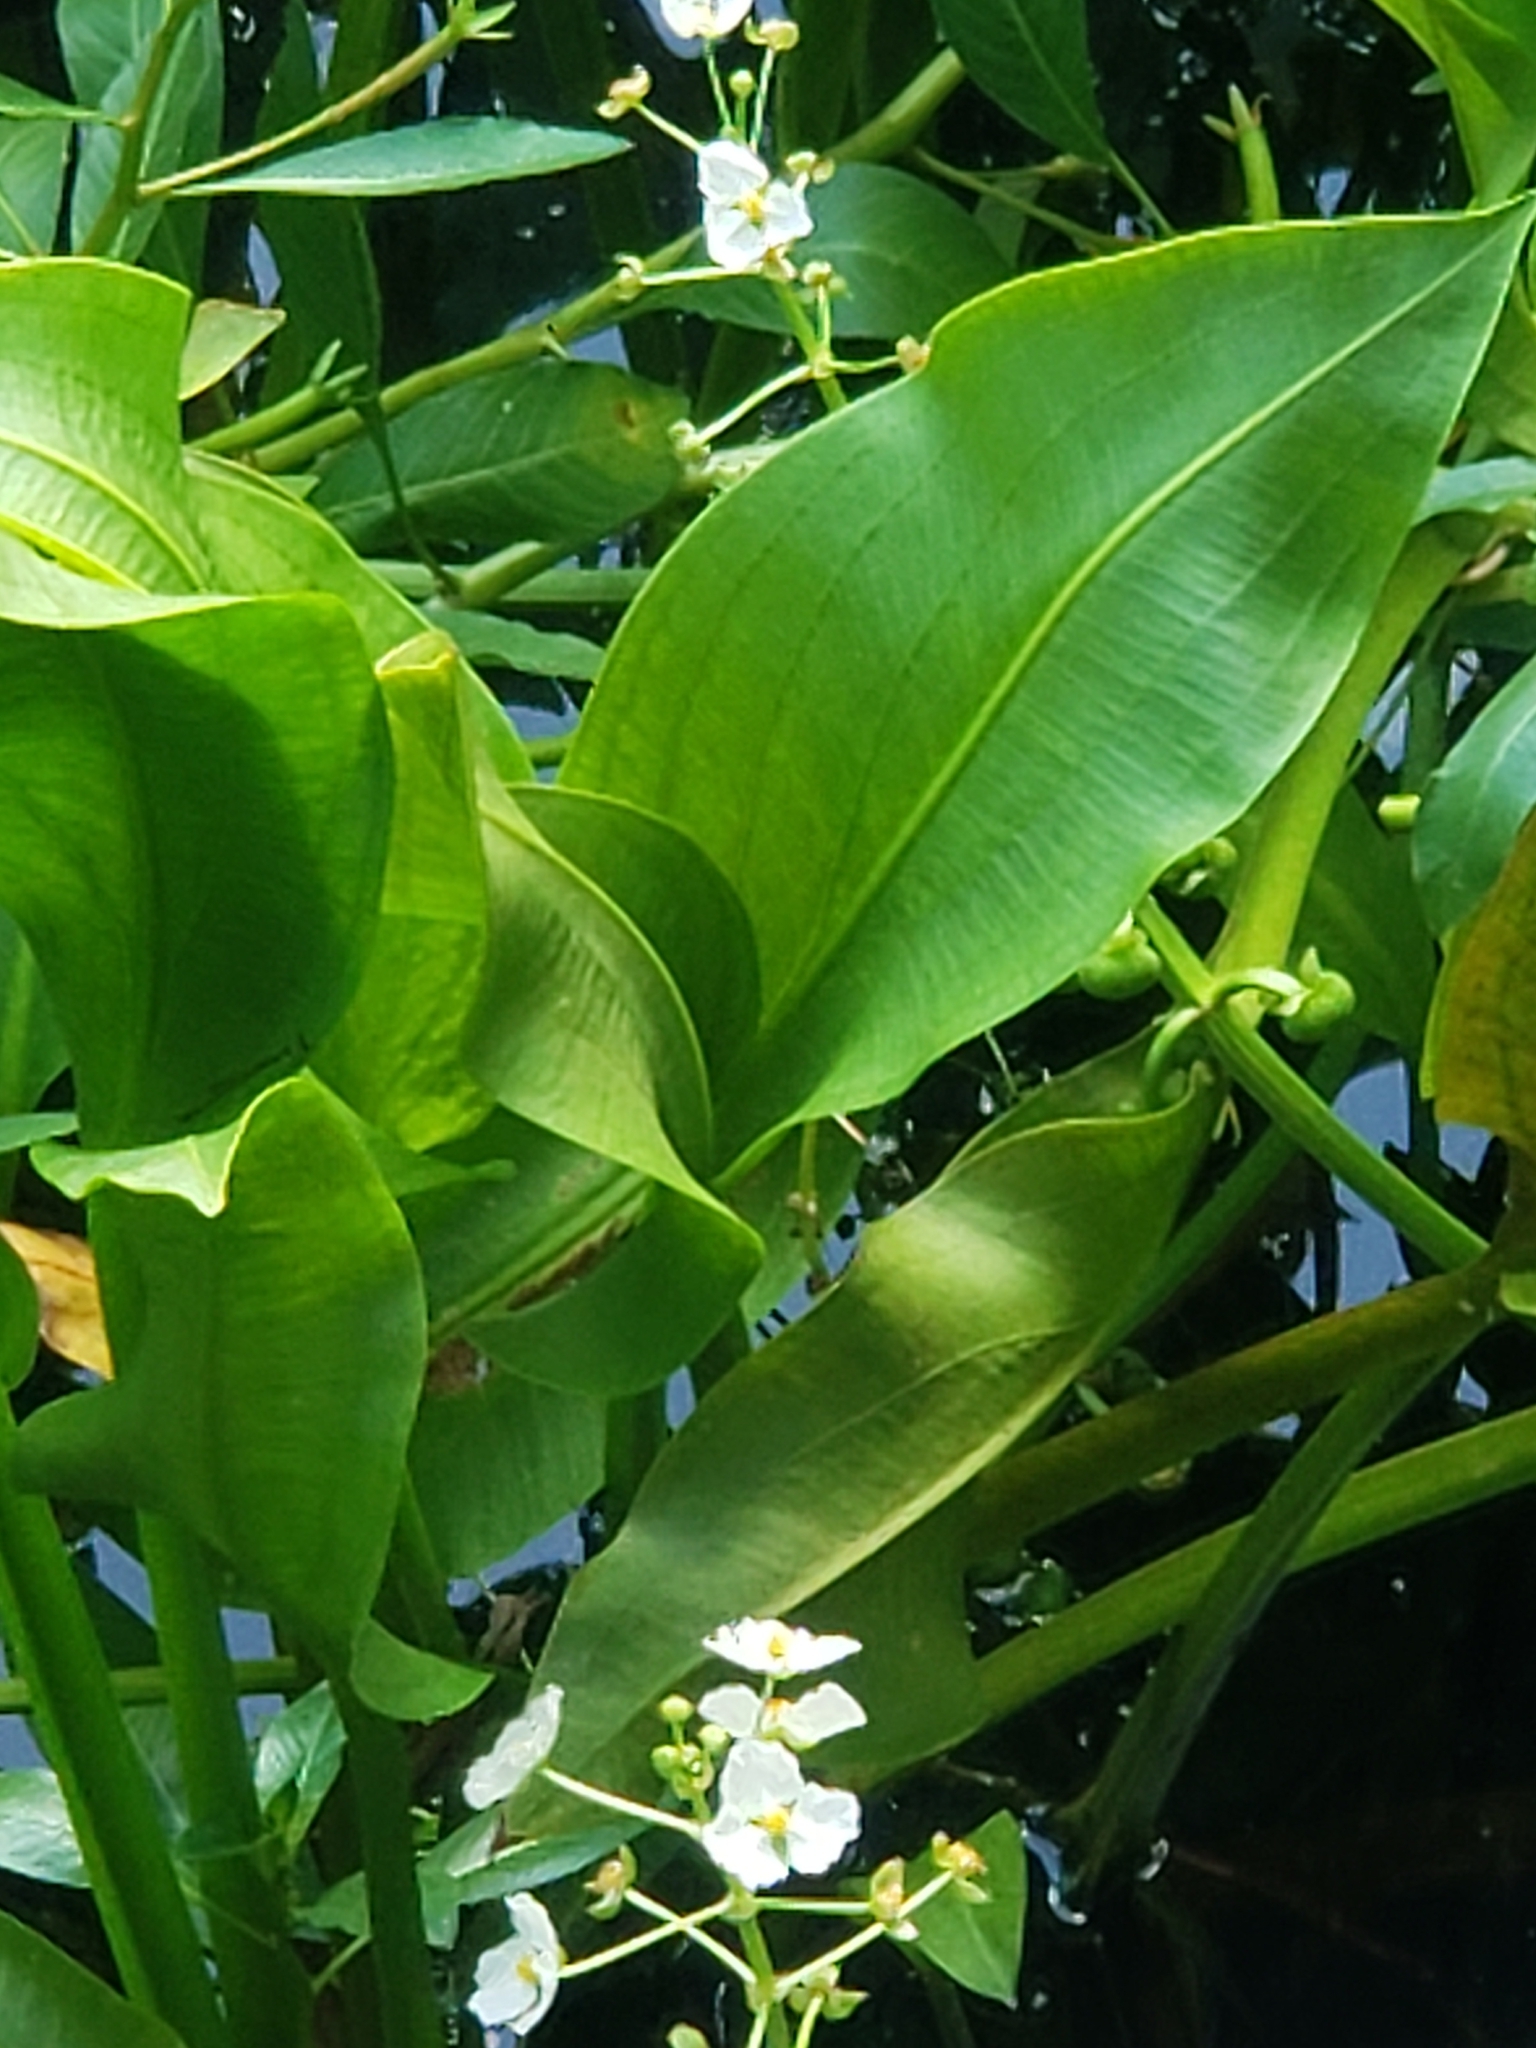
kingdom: Plantae
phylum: Tracheophyta
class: Liliopsida
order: Alismatales
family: Alismataceae
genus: Sagittaria
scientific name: Sagittaria platyphylla
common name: Broad-leaf arrowhead
